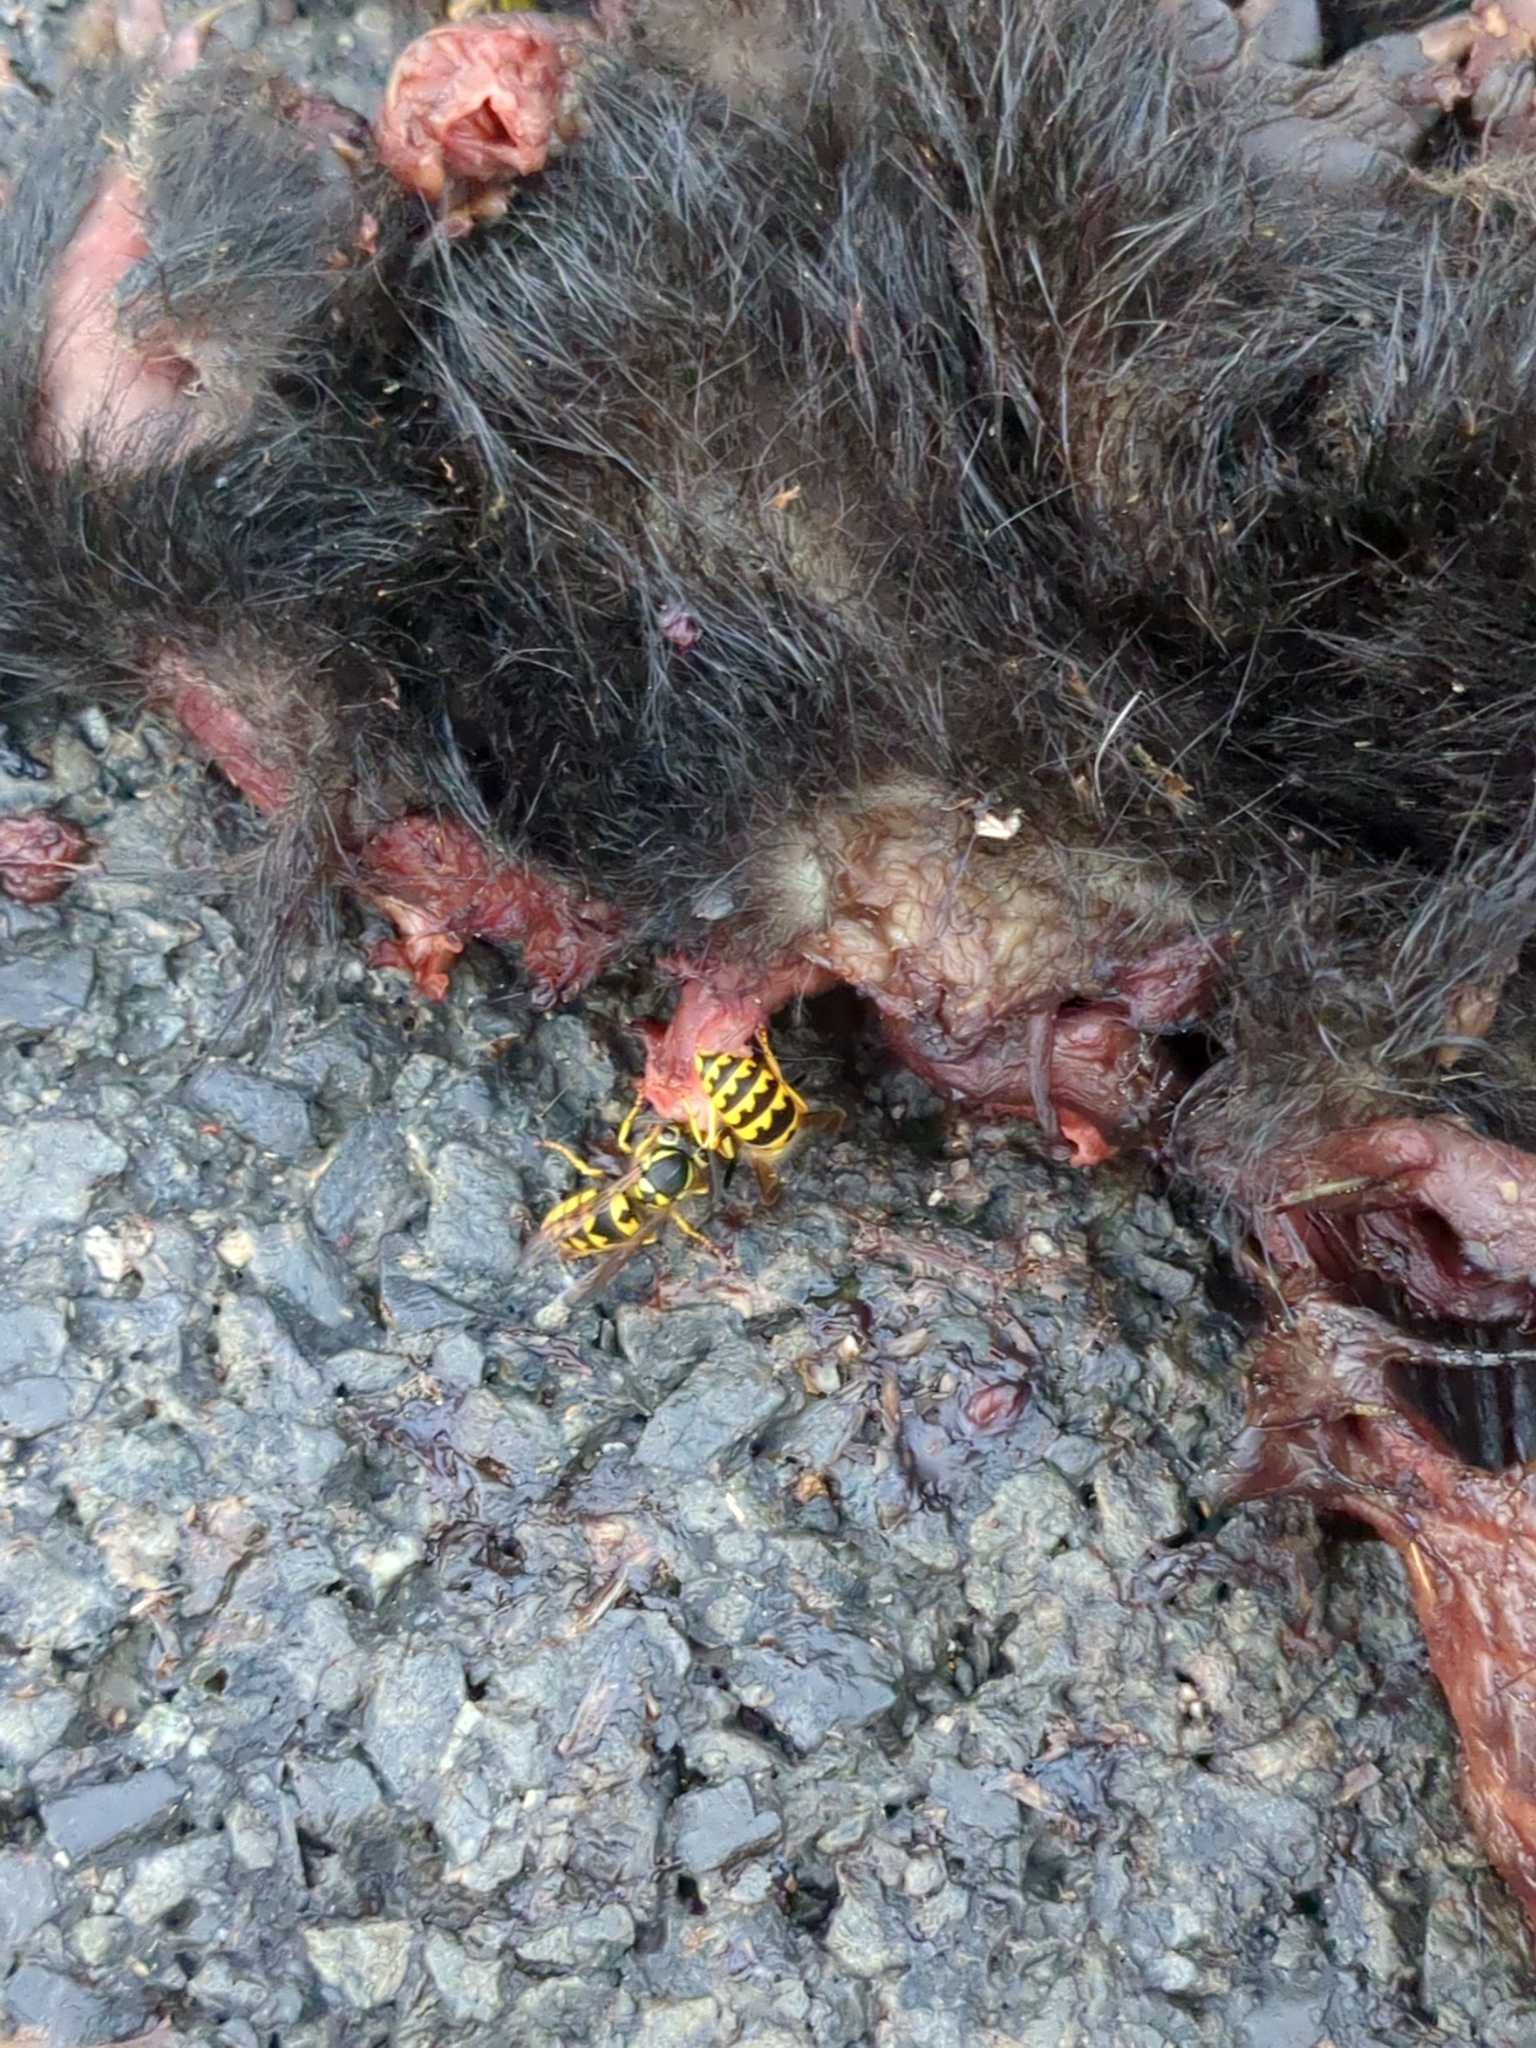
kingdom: Animalia
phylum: Arthropoda
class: Insecta
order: Hymenoptera
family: Vespidae
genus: Vespula
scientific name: Vespula pensylvanica
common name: Western yellowjacket
